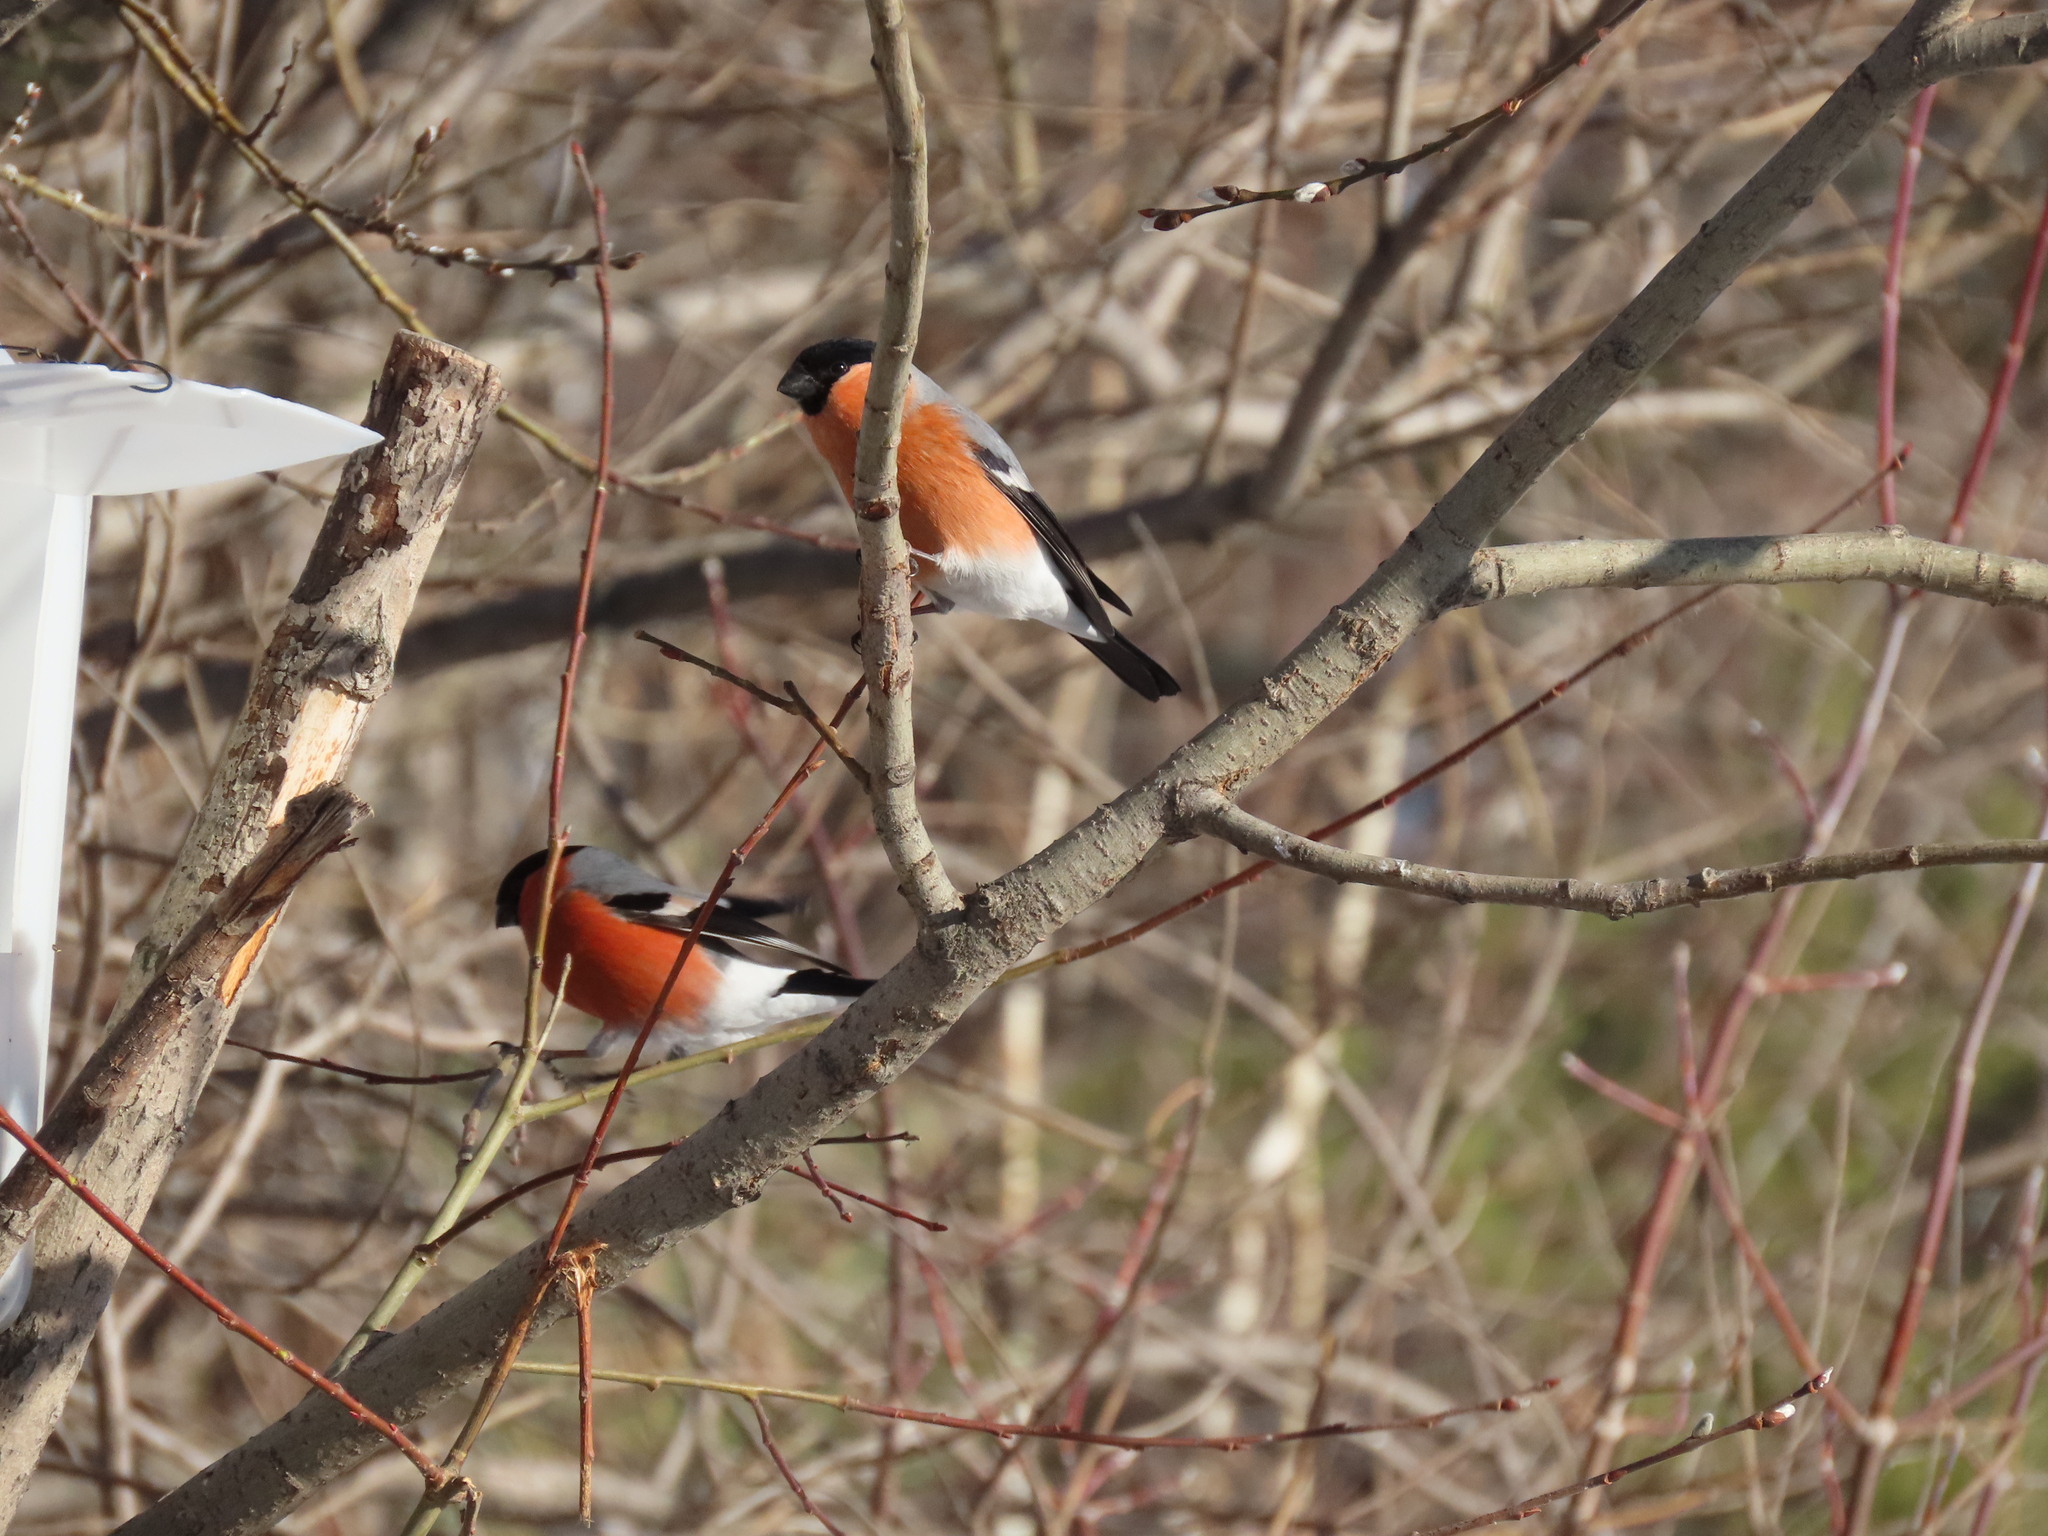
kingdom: Animalia
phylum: Chordata
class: Aves
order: Passeriformes
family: Fringillidae
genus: Pyrrhula
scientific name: Pyrrhula pyrrhula
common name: Eurasian bullfinch
